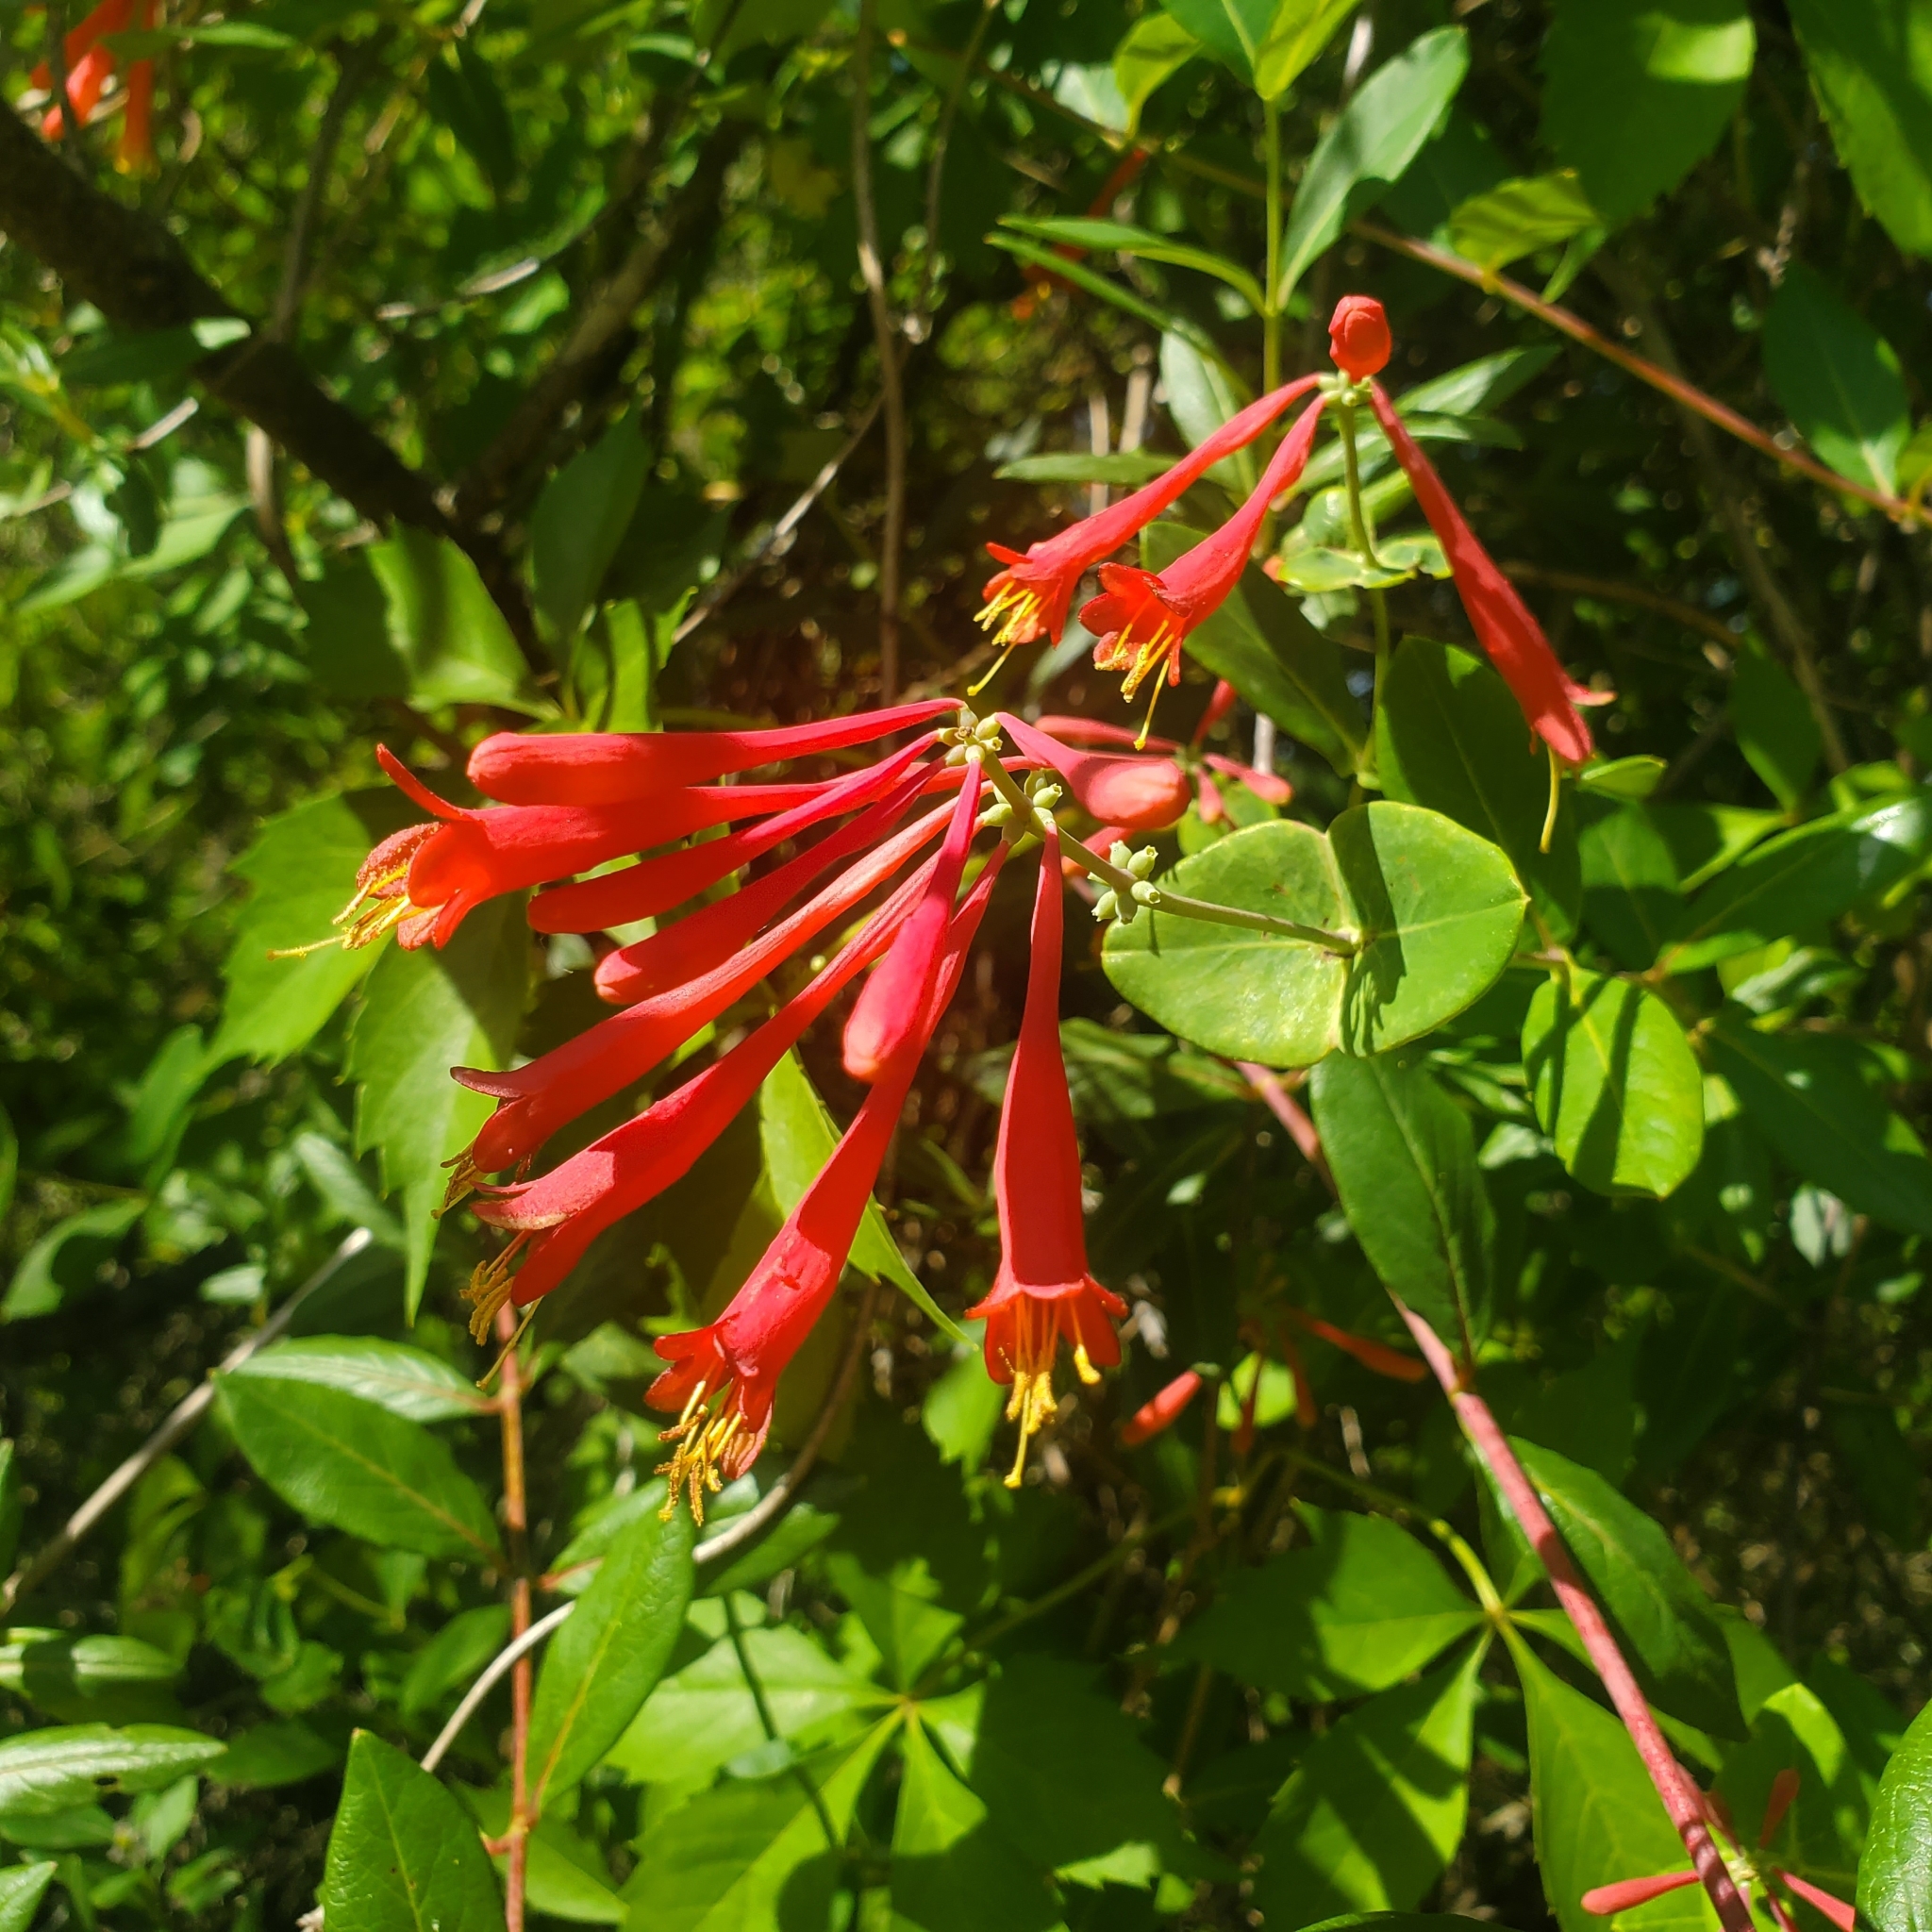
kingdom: Plantae
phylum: Tracheophyta
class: Magnoliopsida
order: Dipsacales
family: Caprifoliaceae
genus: Lonicera
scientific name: Lonicera sempervirens
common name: Coral honeysuckle
